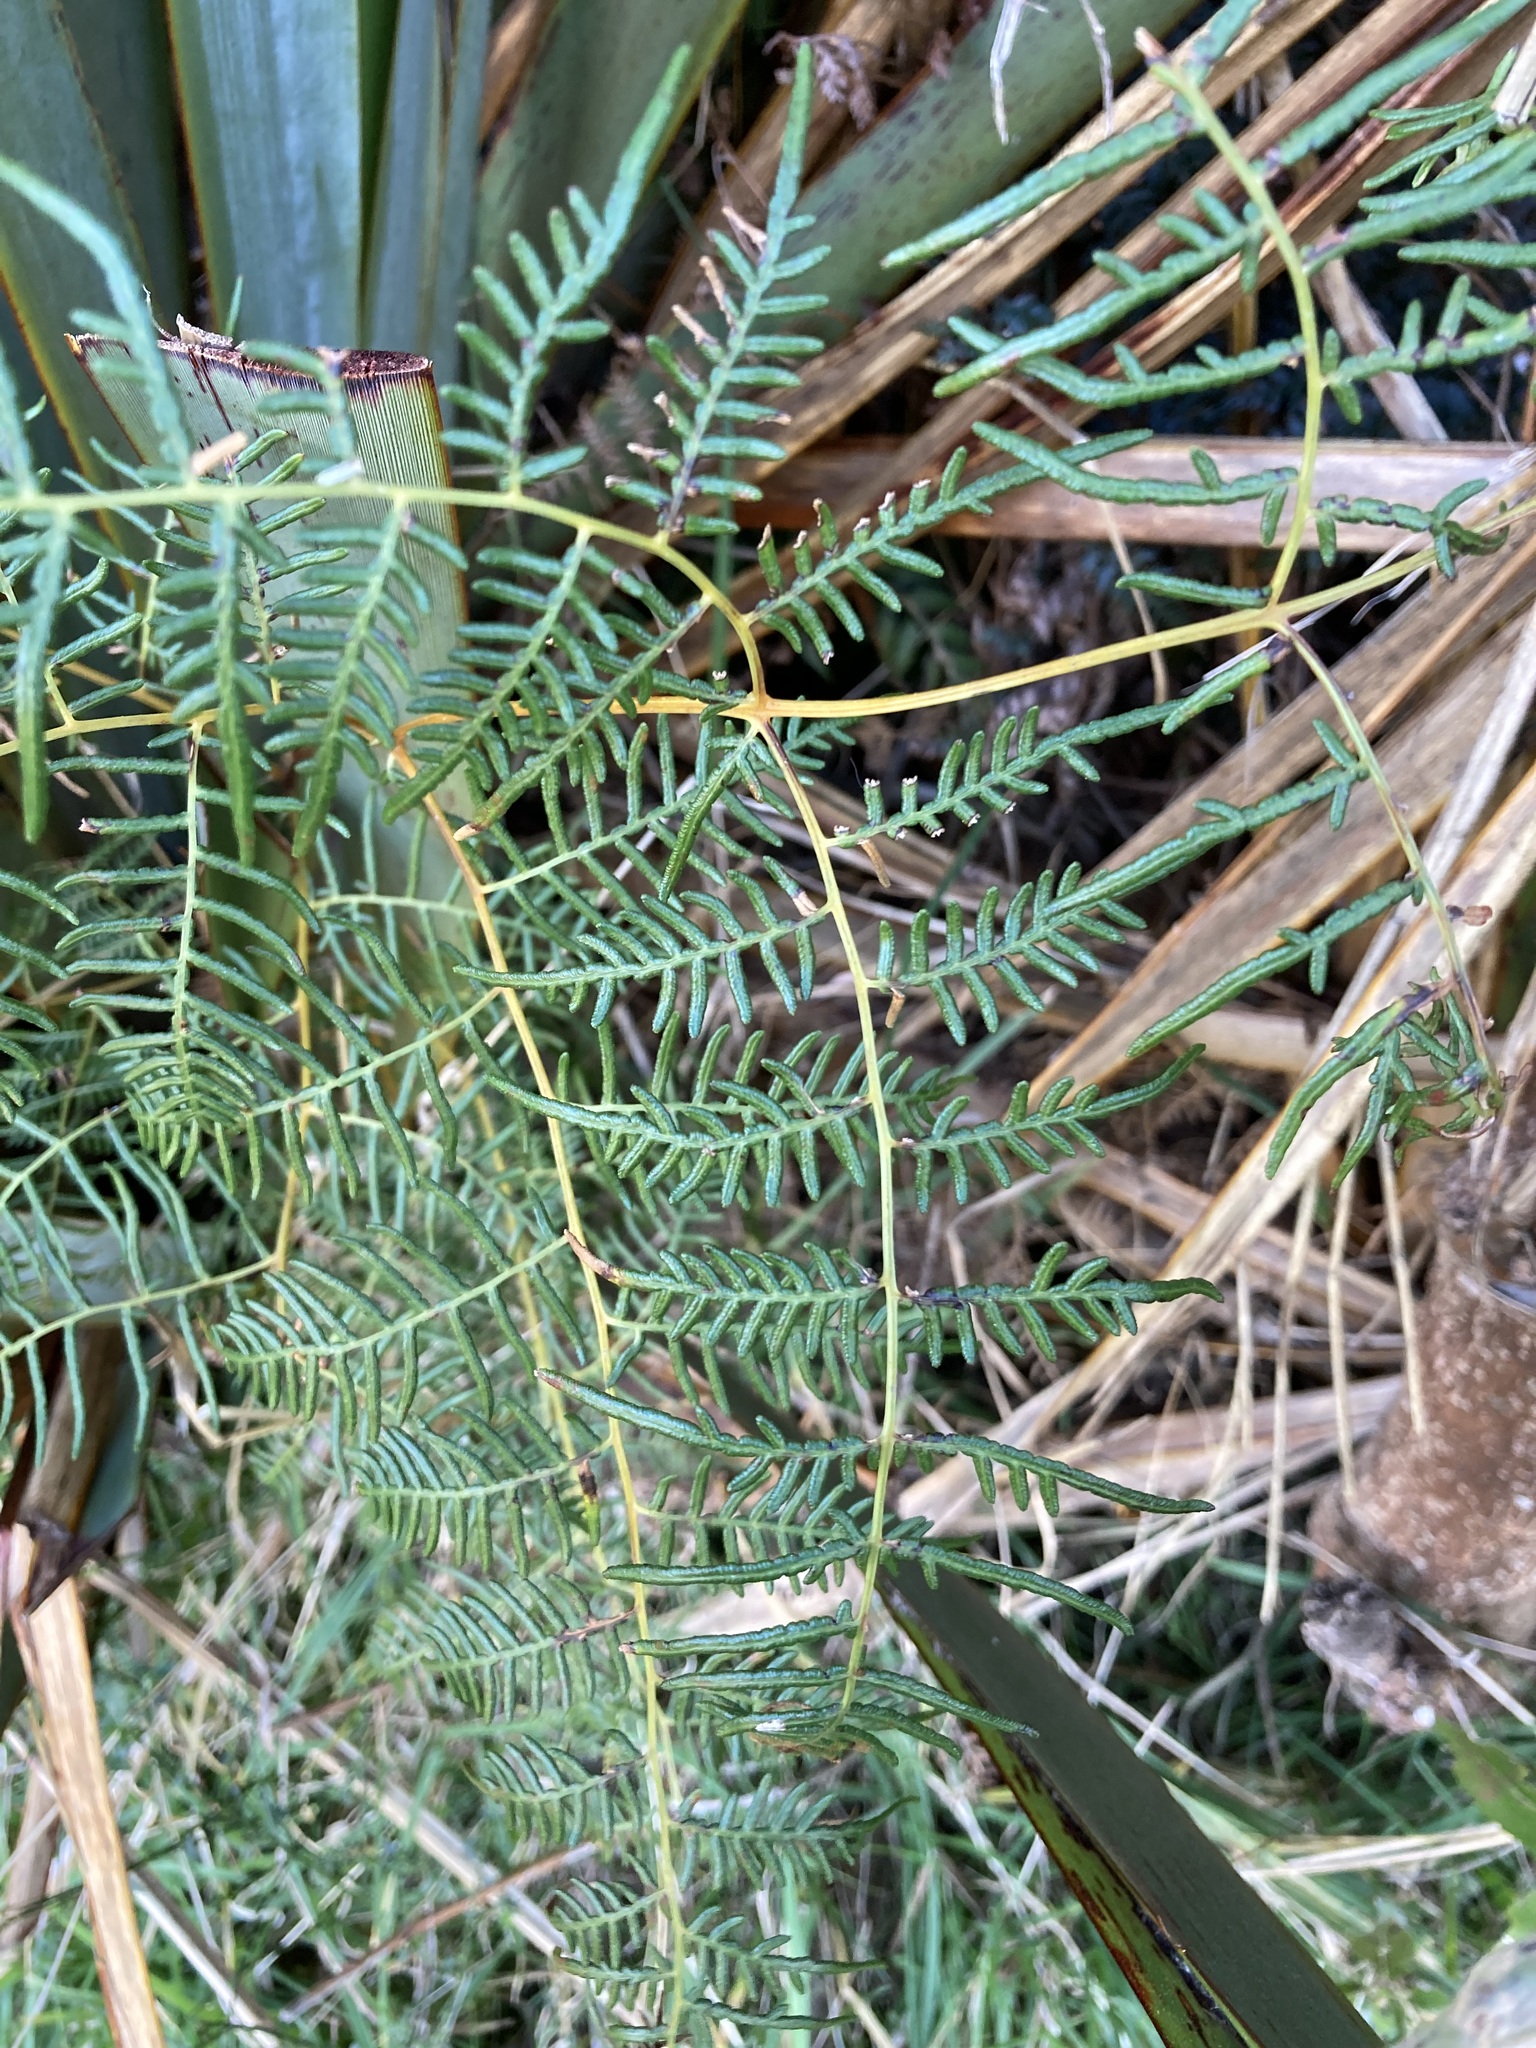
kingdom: Plantae
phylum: Tracheophyta
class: Polypodiopsida
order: Polypodiales
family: Dennstaedtiaceae
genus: Pteridium
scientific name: Pteridium esculentum
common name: Bracken fern
